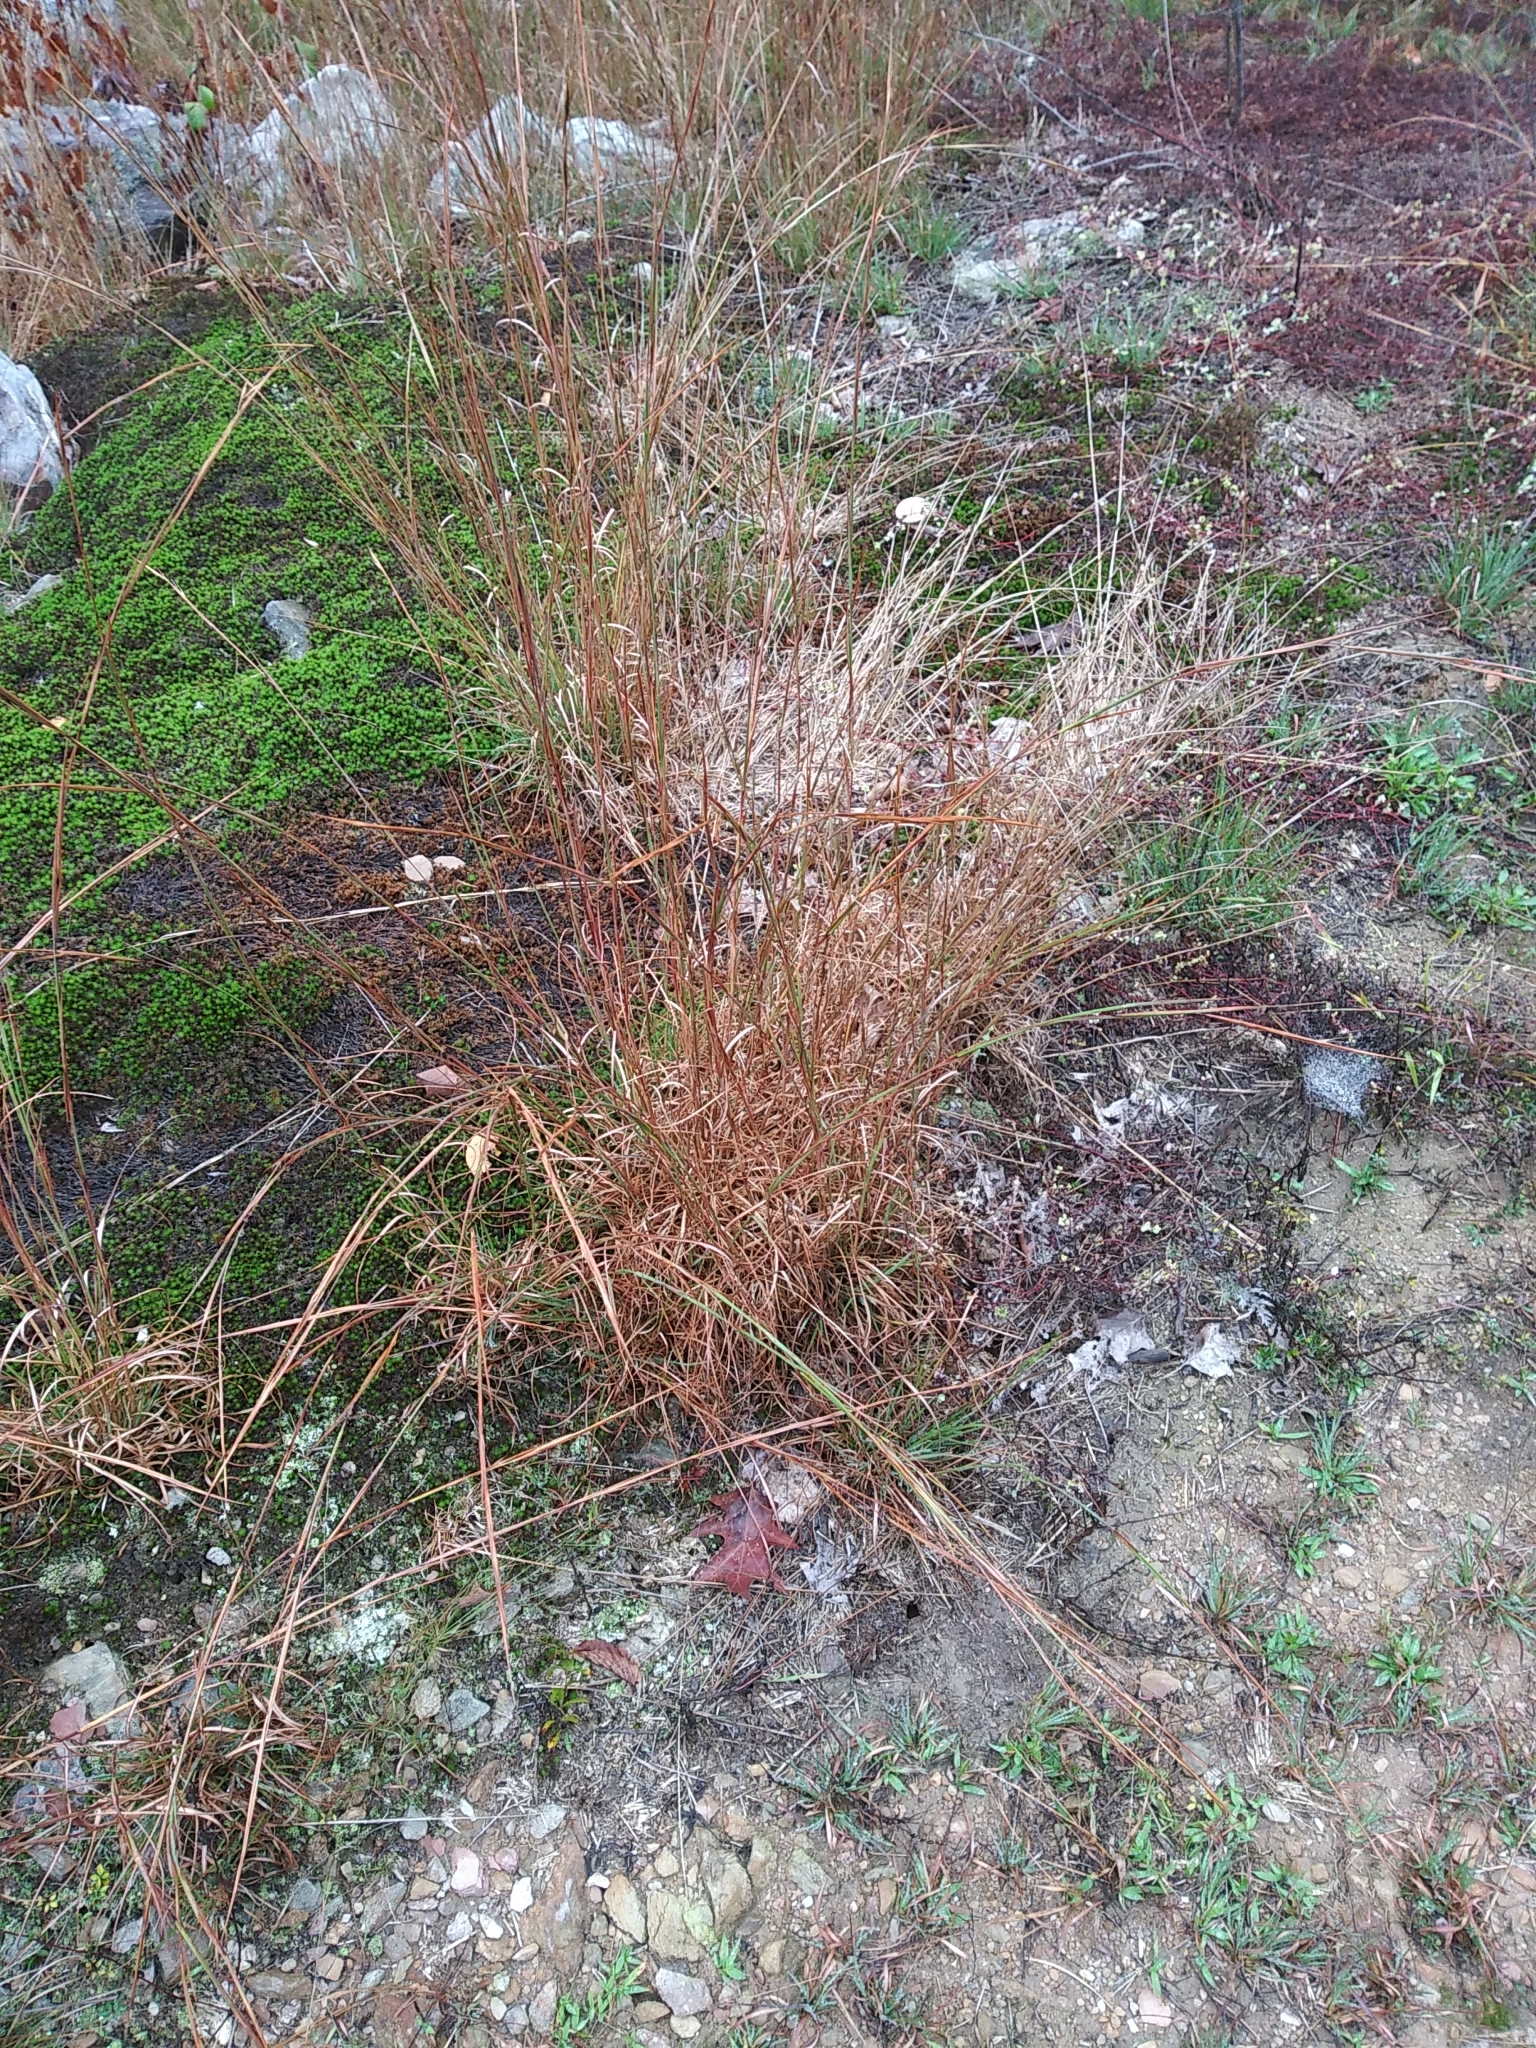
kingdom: Plantae
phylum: Tracheophyta
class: Liliopsida
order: Poales
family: Poaceae
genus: Andropogon
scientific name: Andropogon virginicus
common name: Broomsedge bluestem
